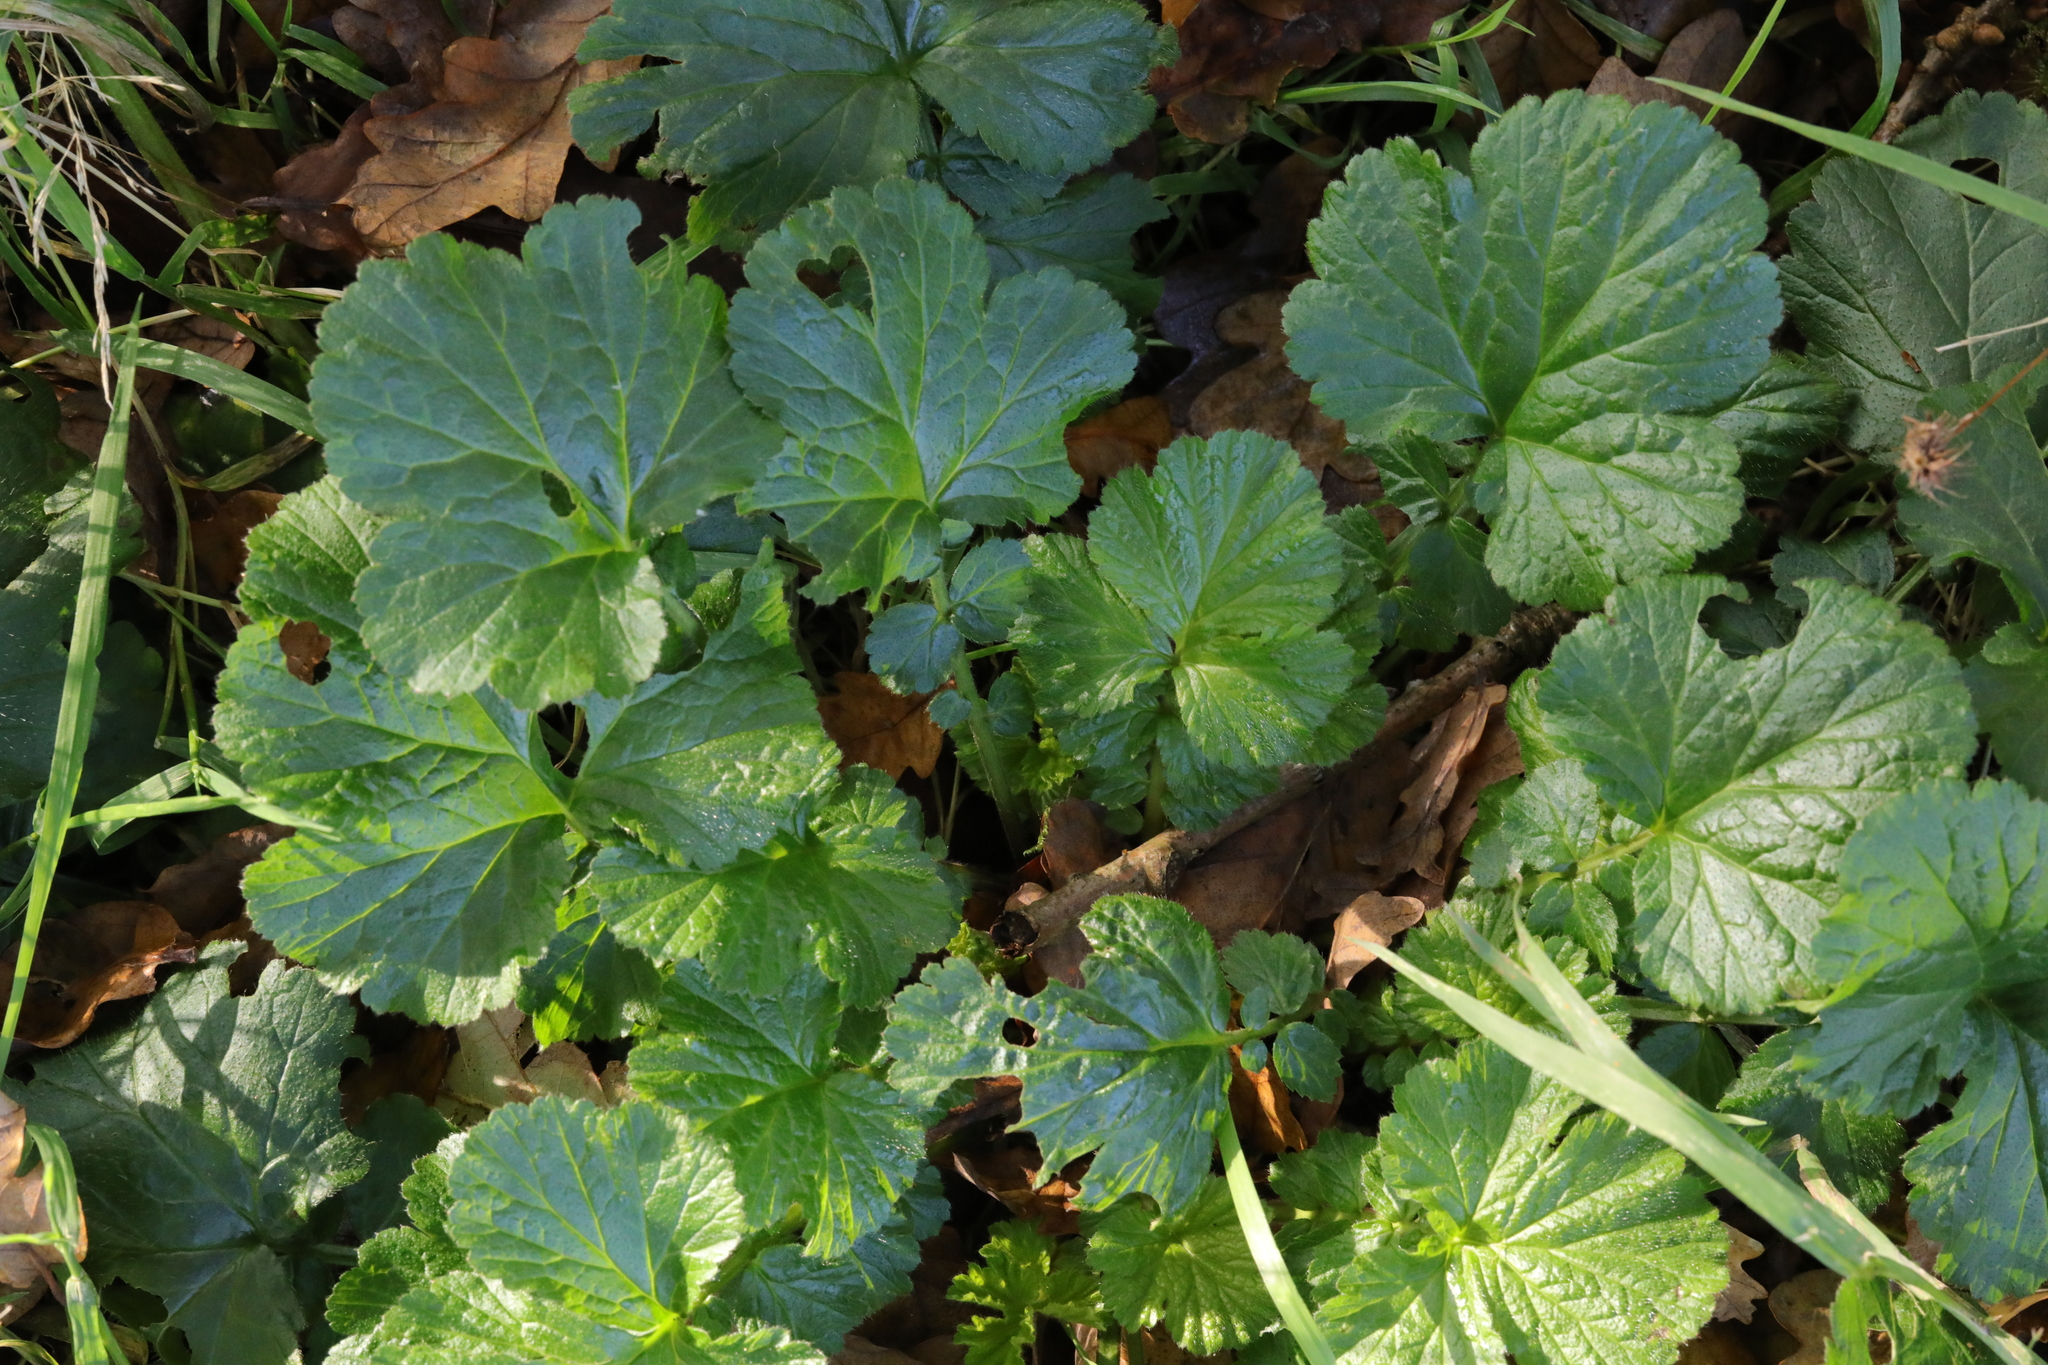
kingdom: Plantae
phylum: Tracheophyta
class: Magnoliopsida
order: Rosales
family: Rosaceae
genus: Geum
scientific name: Geum urbanum
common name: Wood avens
